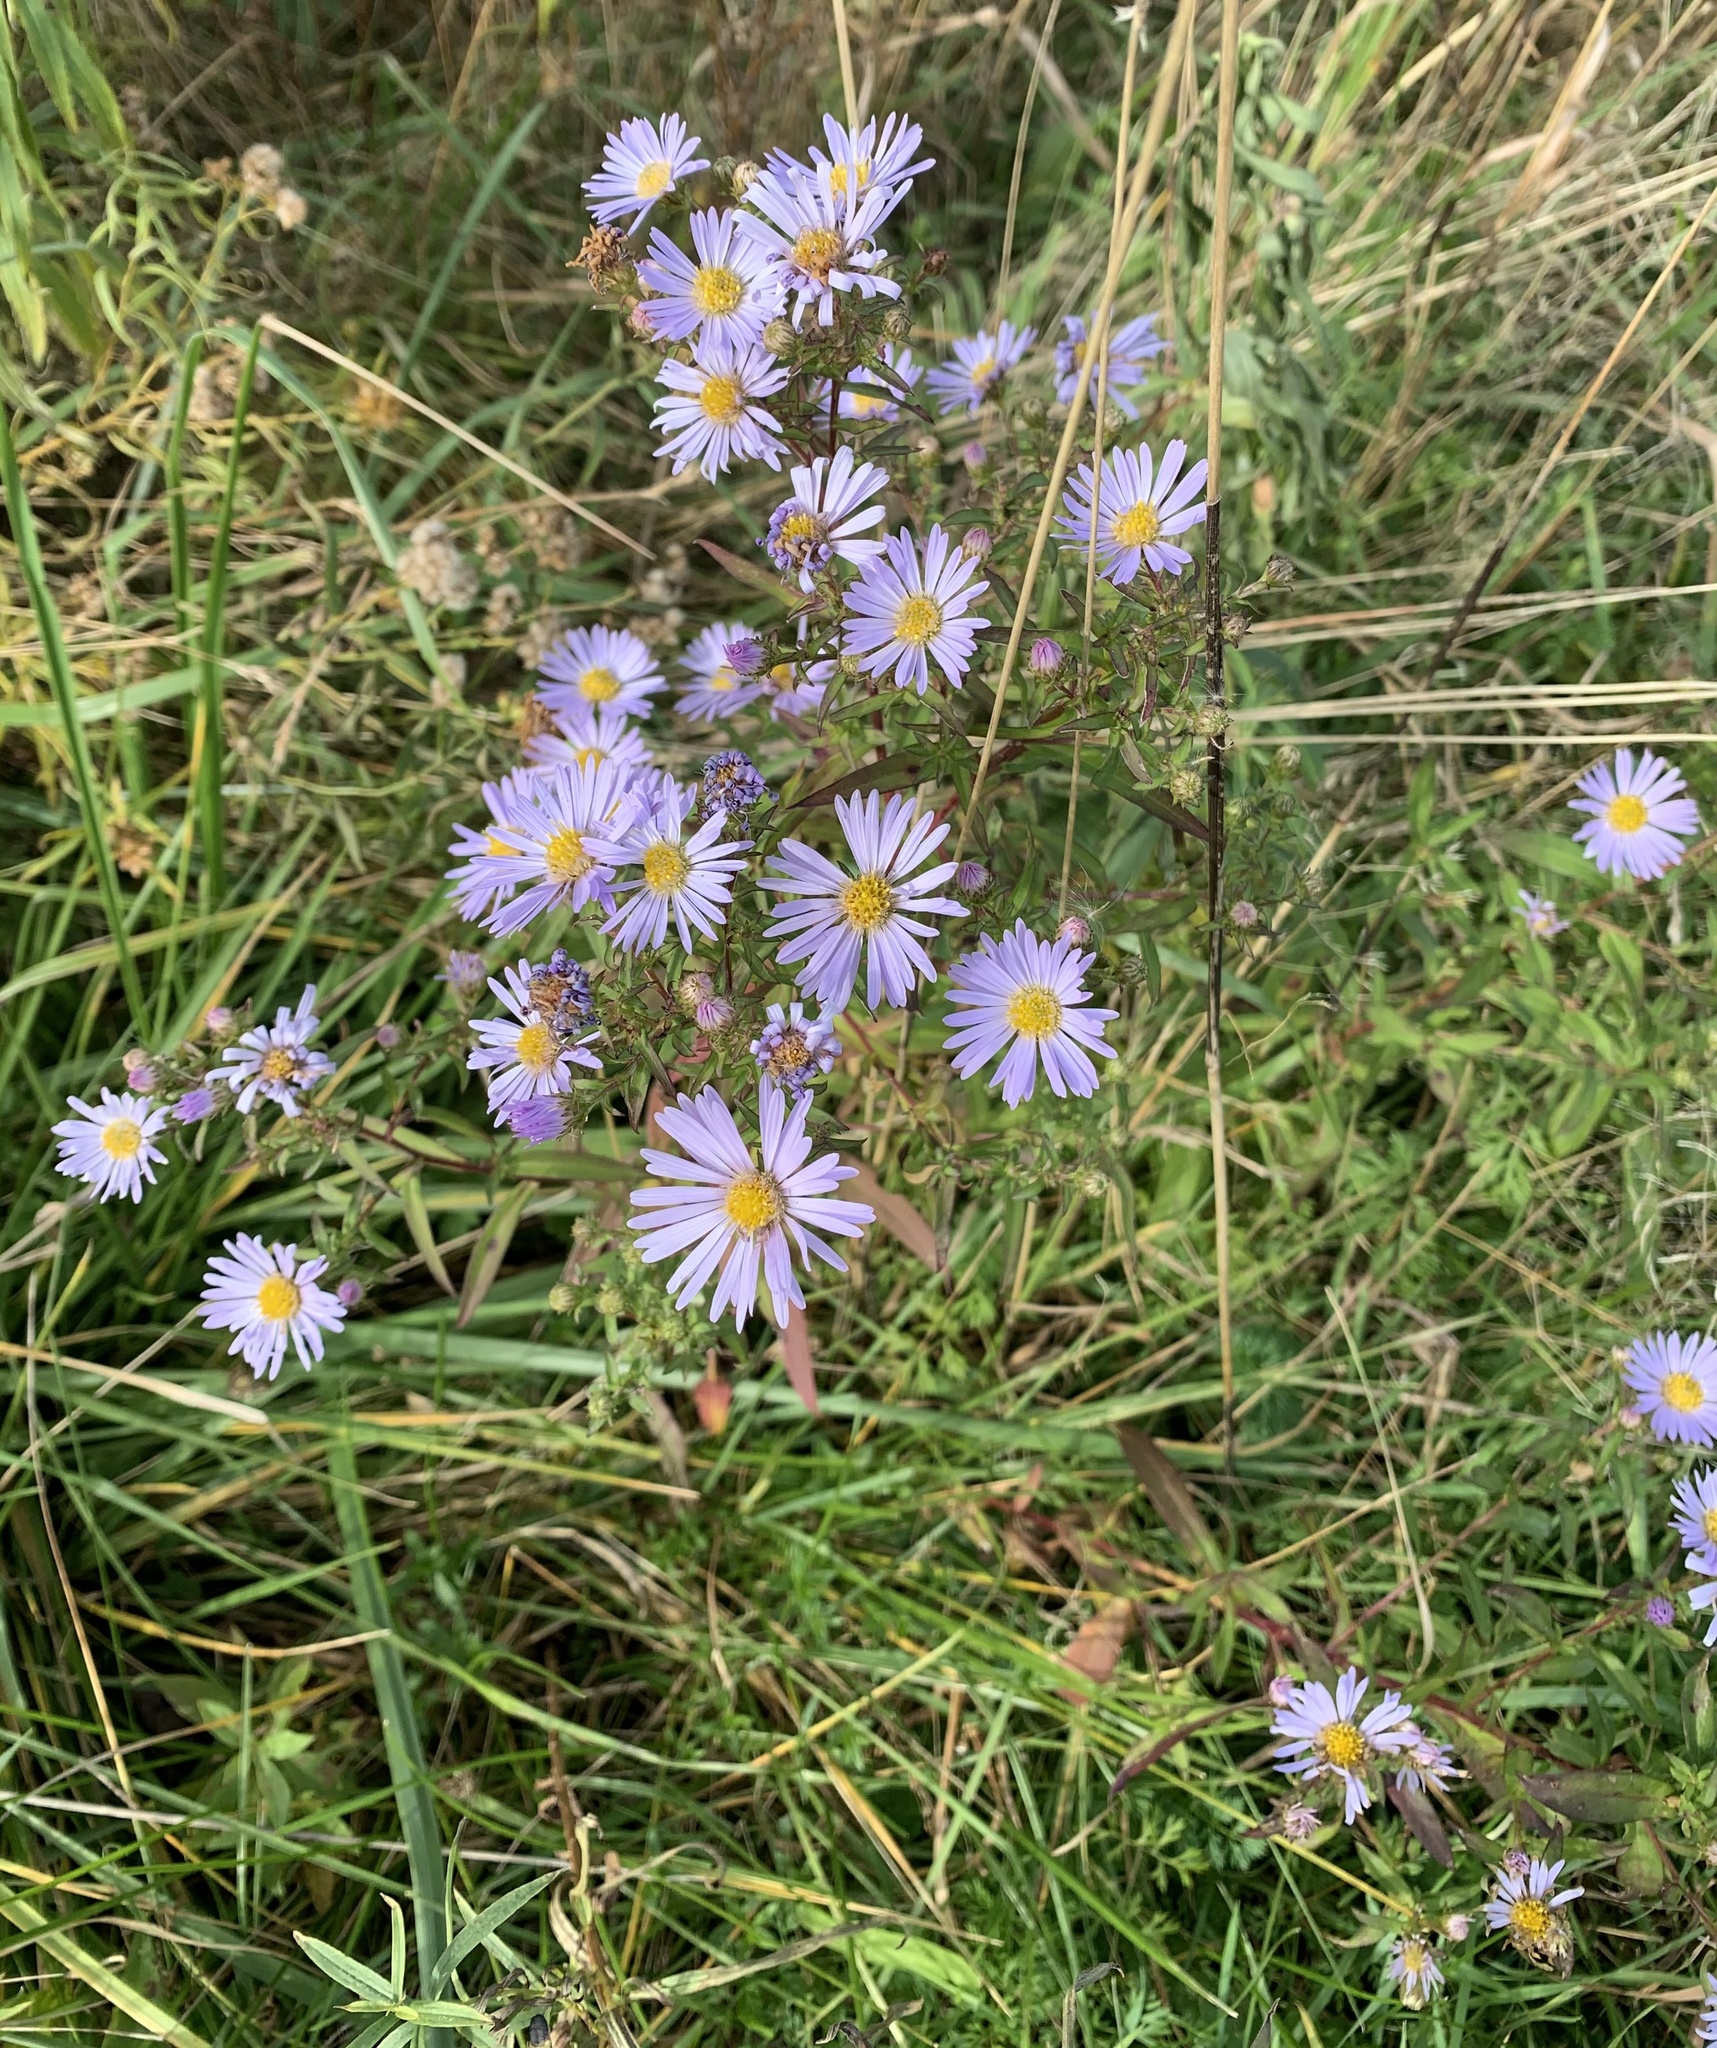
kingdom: Plantae
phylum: Tracheophyta
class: Magnoliopsida
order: Asterales
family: Asteraceae
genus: Symphyotrichum
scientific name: Symphyotrichum novi-belgii
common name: Michaelmas daisy
